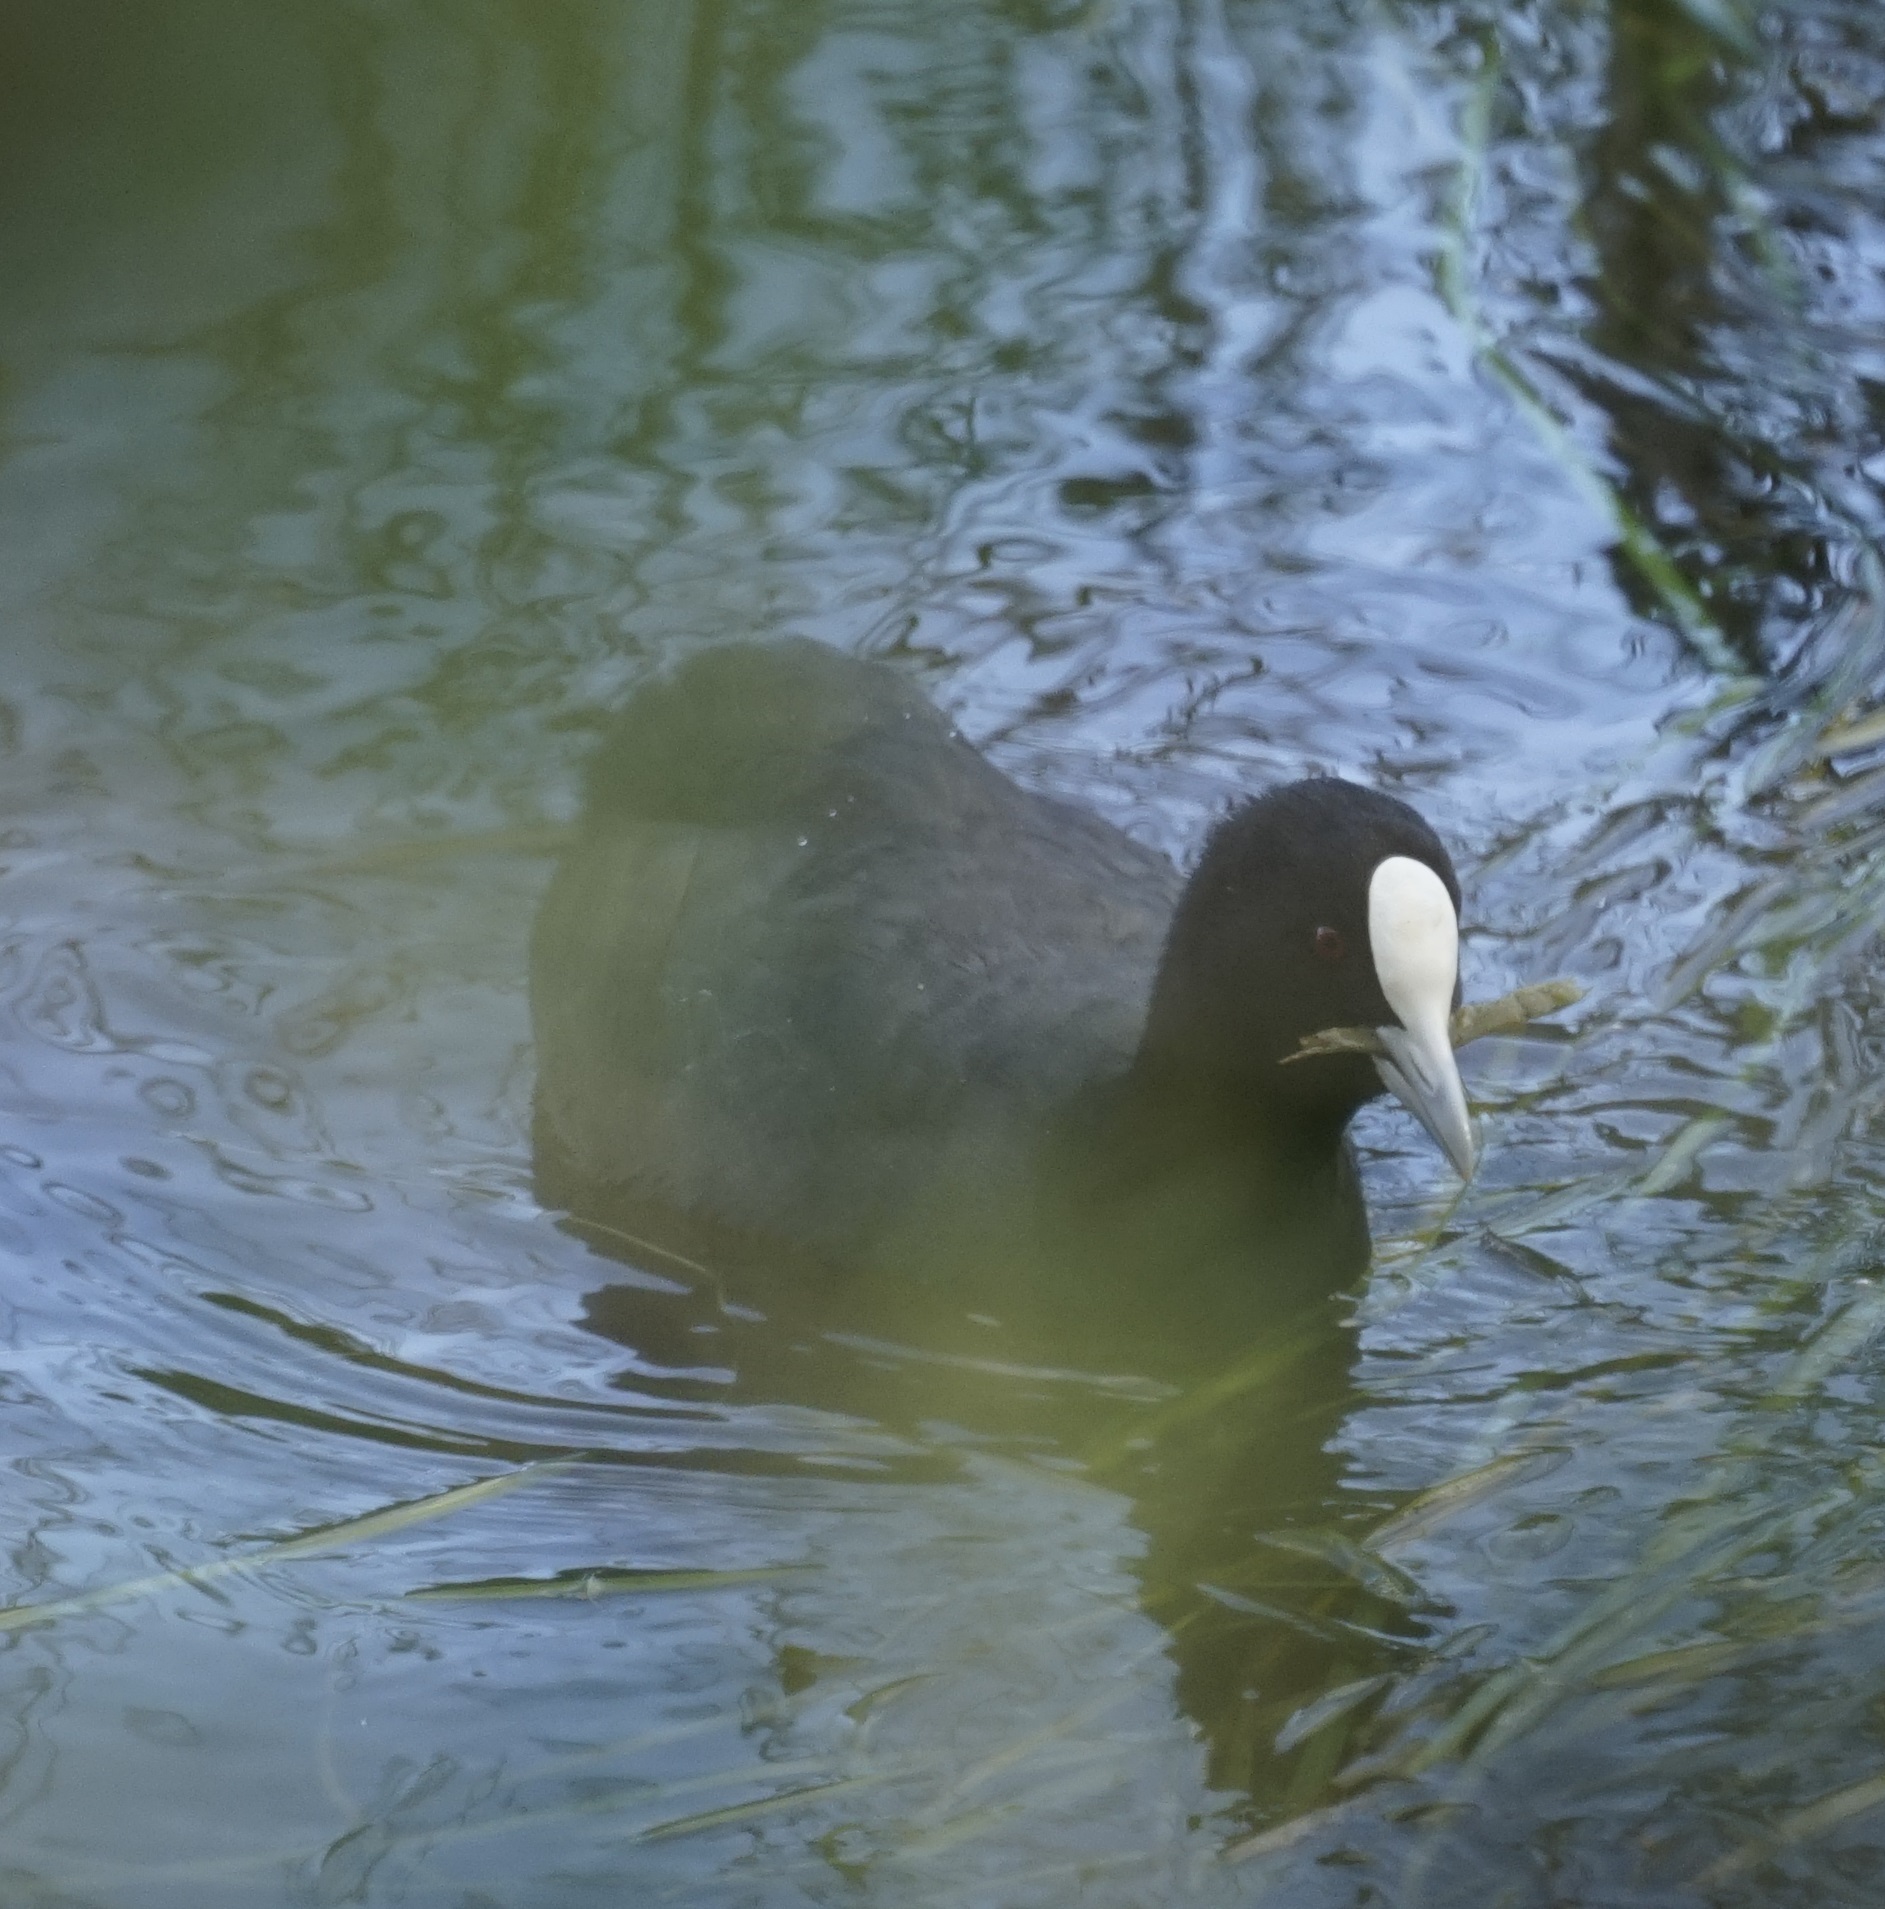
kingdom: Animalia
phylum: Chordata
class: Aves
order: Gruiformes
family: Rallidae
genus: Fulica
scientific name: Fulica atra
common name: Eurasian coot
